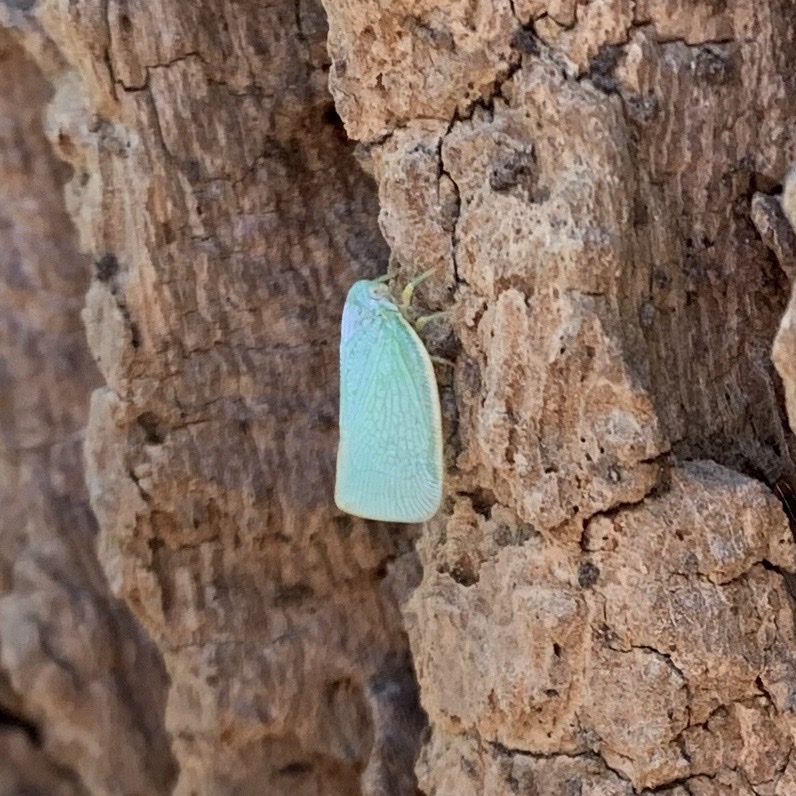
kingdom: Animalia
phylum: Arthropoda
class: Insecta
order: Hemiptera
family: Flatidae
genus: Flatormenis
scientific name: Flatormenis proxima
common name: Northern flatid planthopper
